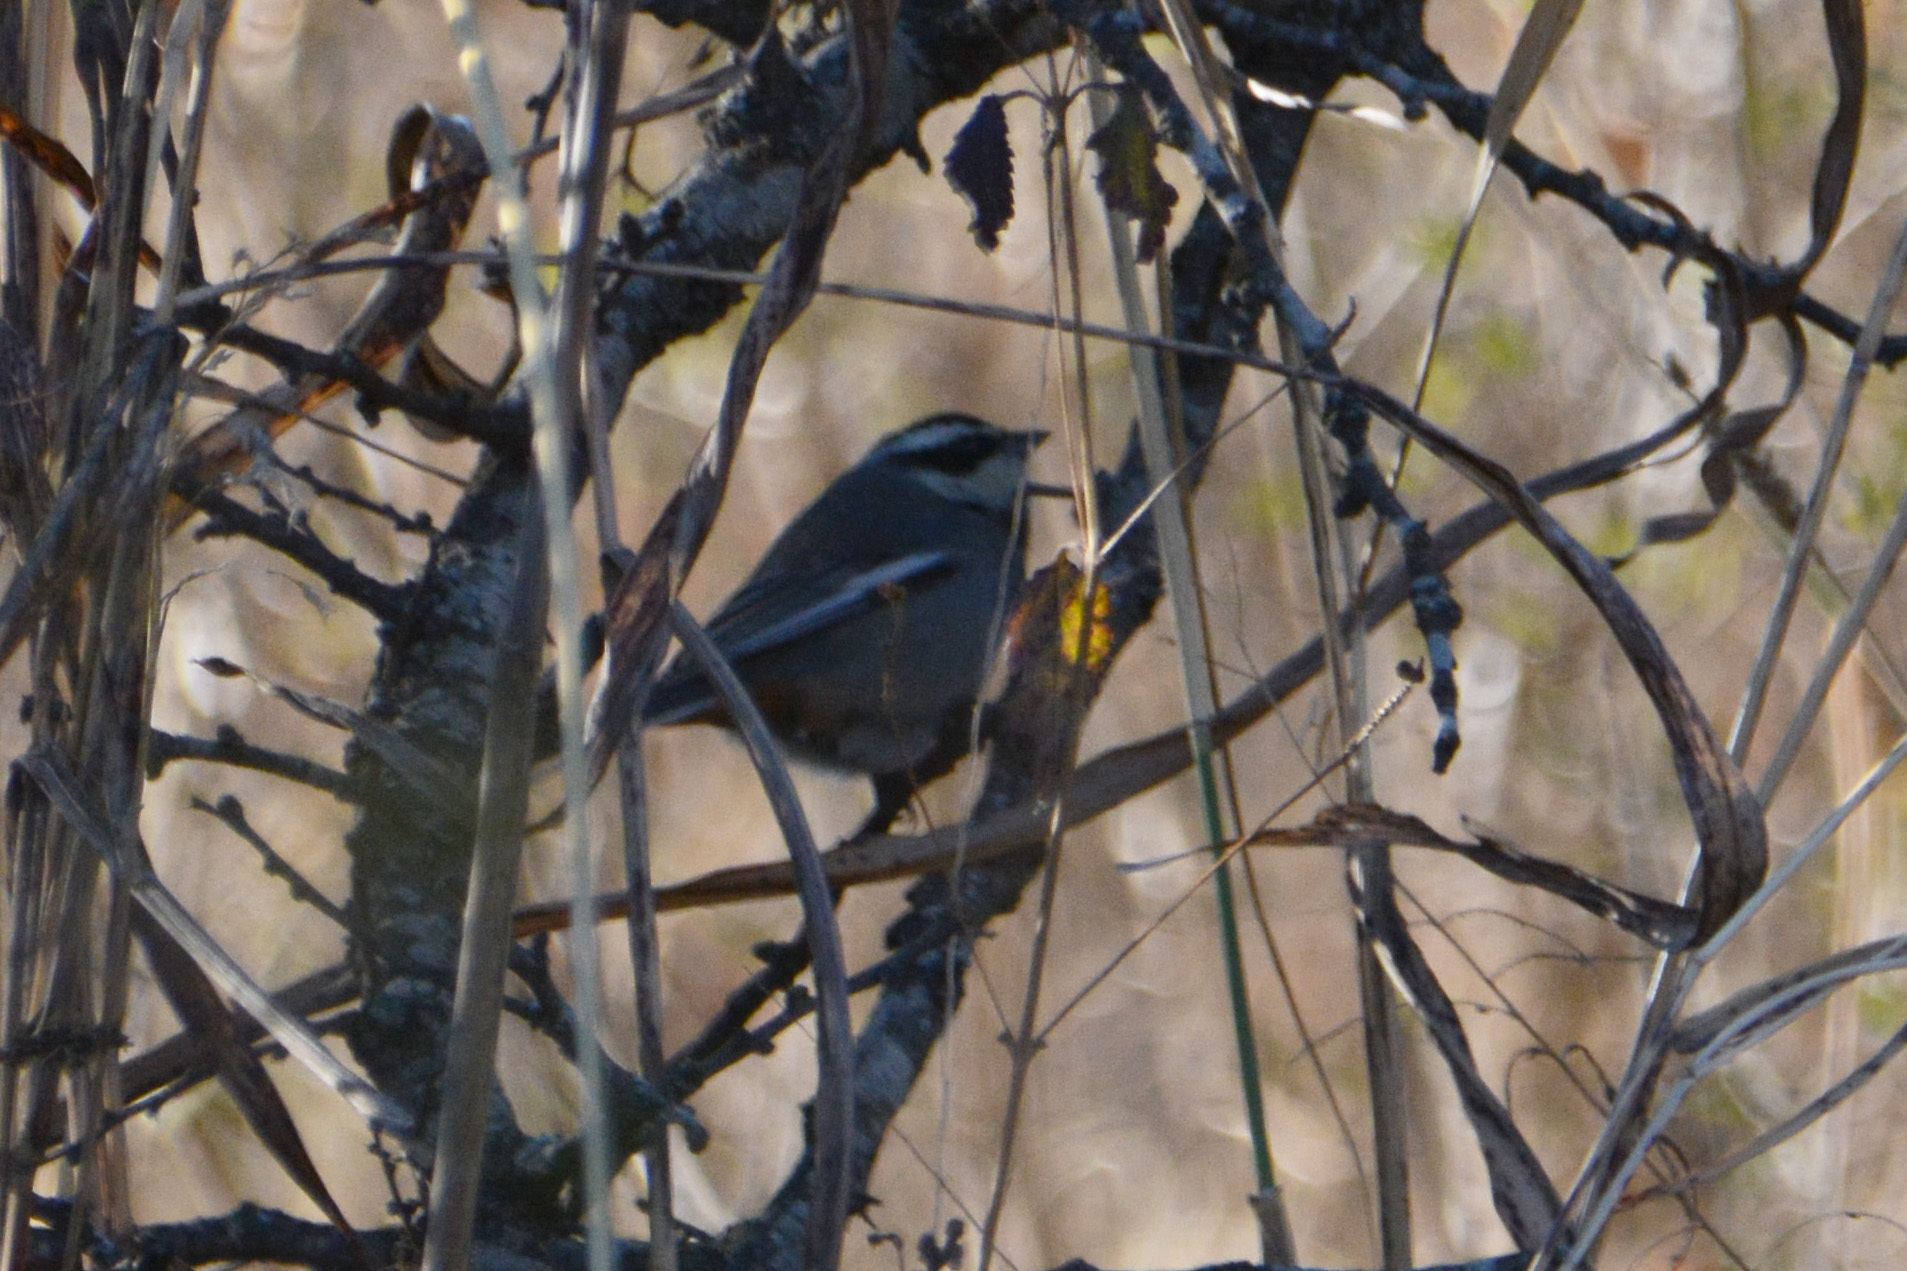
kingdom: Animalia
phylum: Chordata
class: Aves
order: Passeriformes
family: Thraupidae
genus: Microspingus
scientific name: Microspingus torquatus
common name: Ringed warbling-finch
